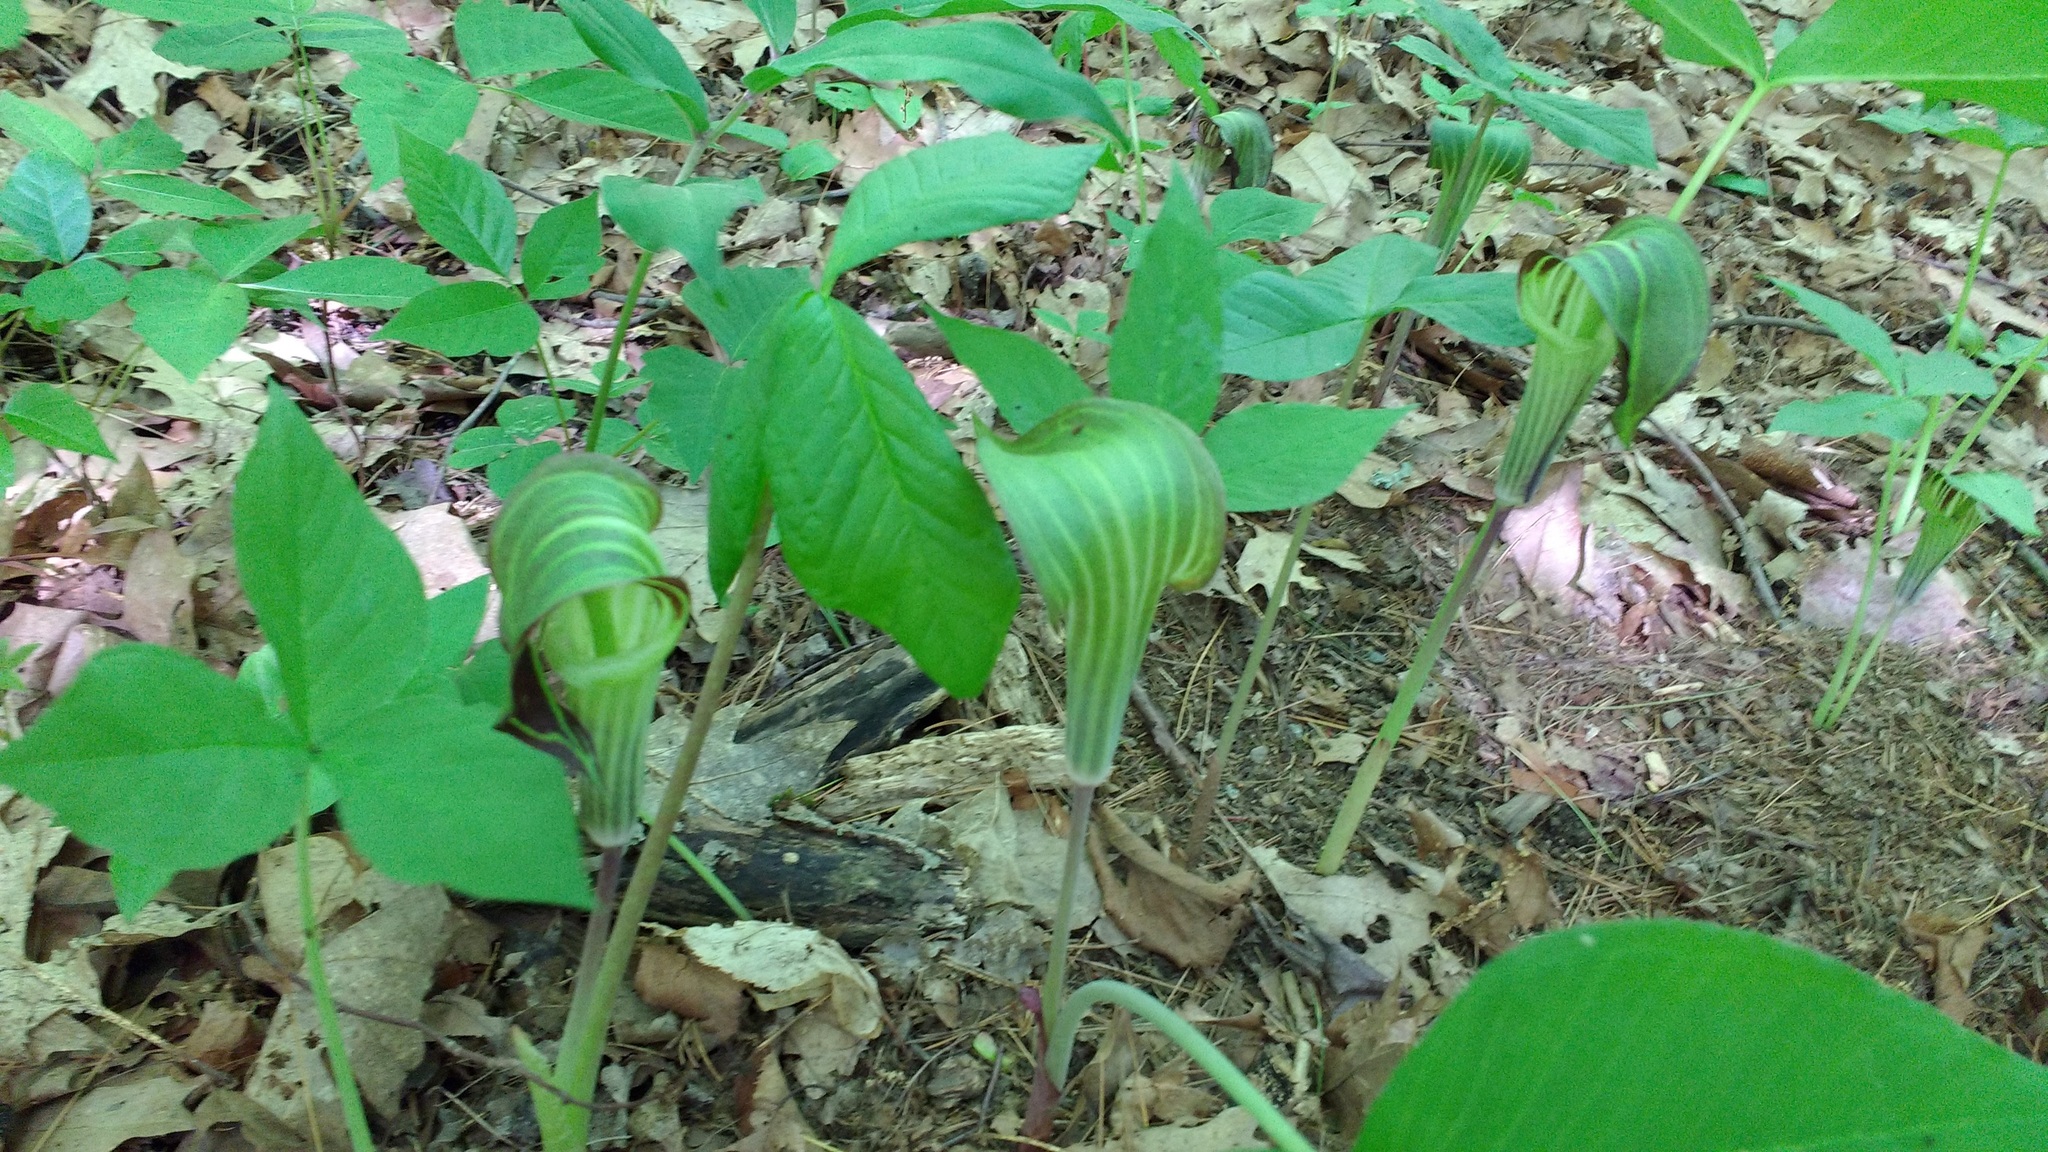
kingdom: Plantae
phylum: Tracheophyta
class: Liliopsida
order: Alismatales
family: Araceae
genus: Arisaema
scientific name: Arisaema triphyllum
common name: Jack-in-the-pulpit
